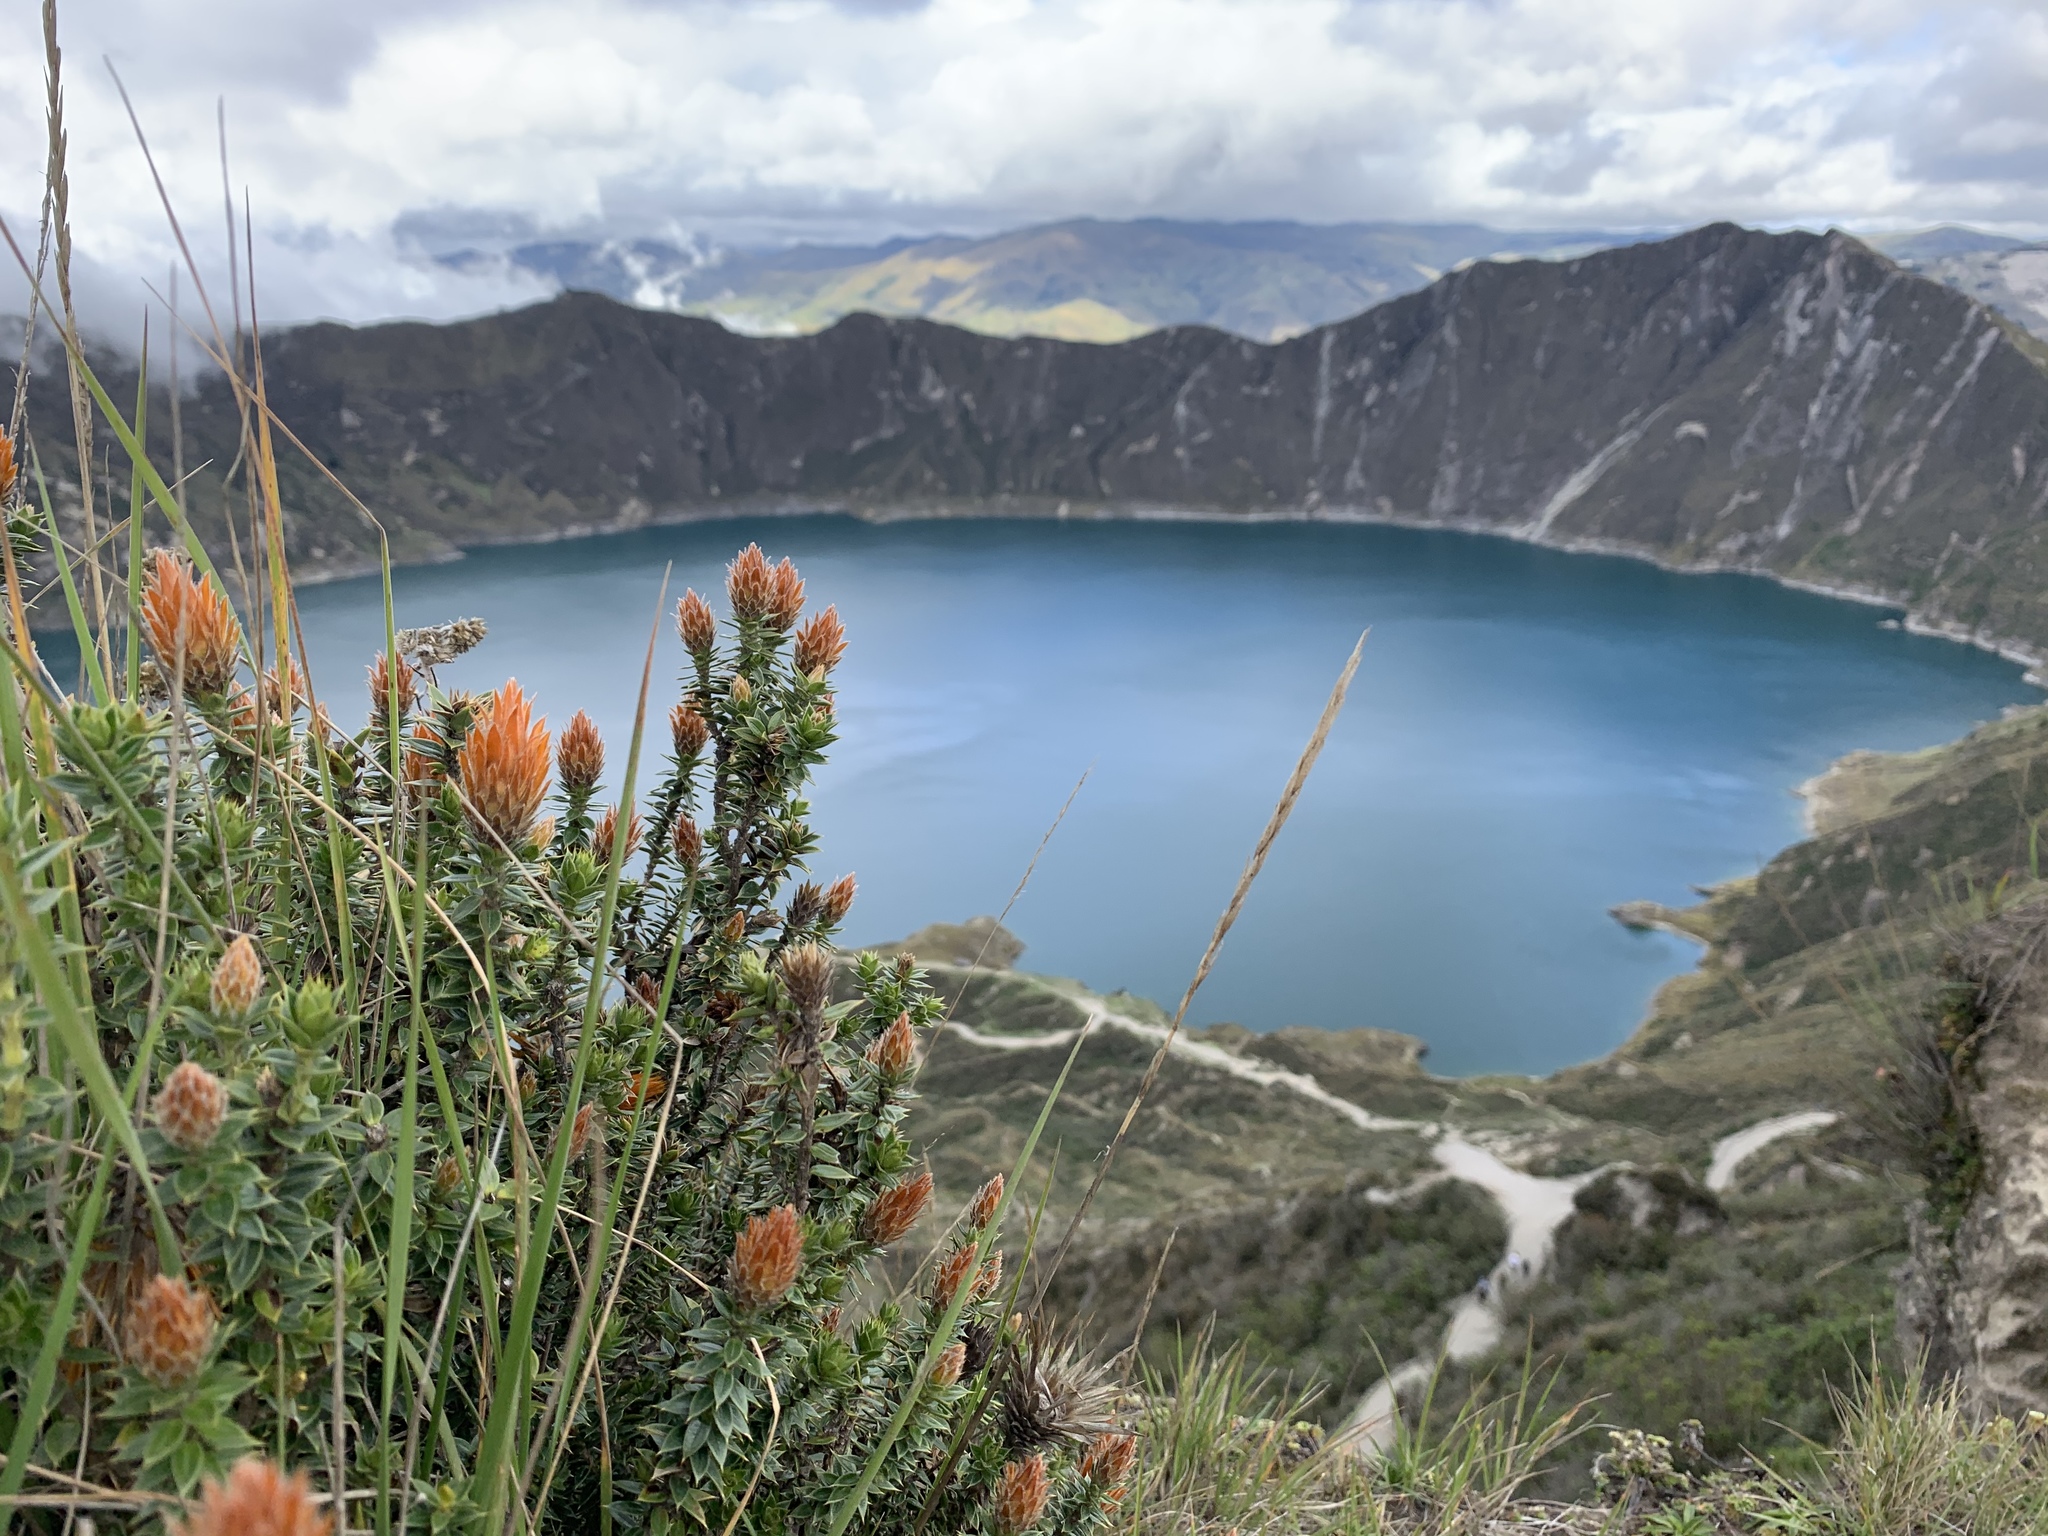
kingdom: Plantae
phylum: Tracheophyta
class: Magnoliopsida
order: Asterales
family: Asteraceae
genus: Chuquiraga
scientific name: Chuquiraga jussieui
